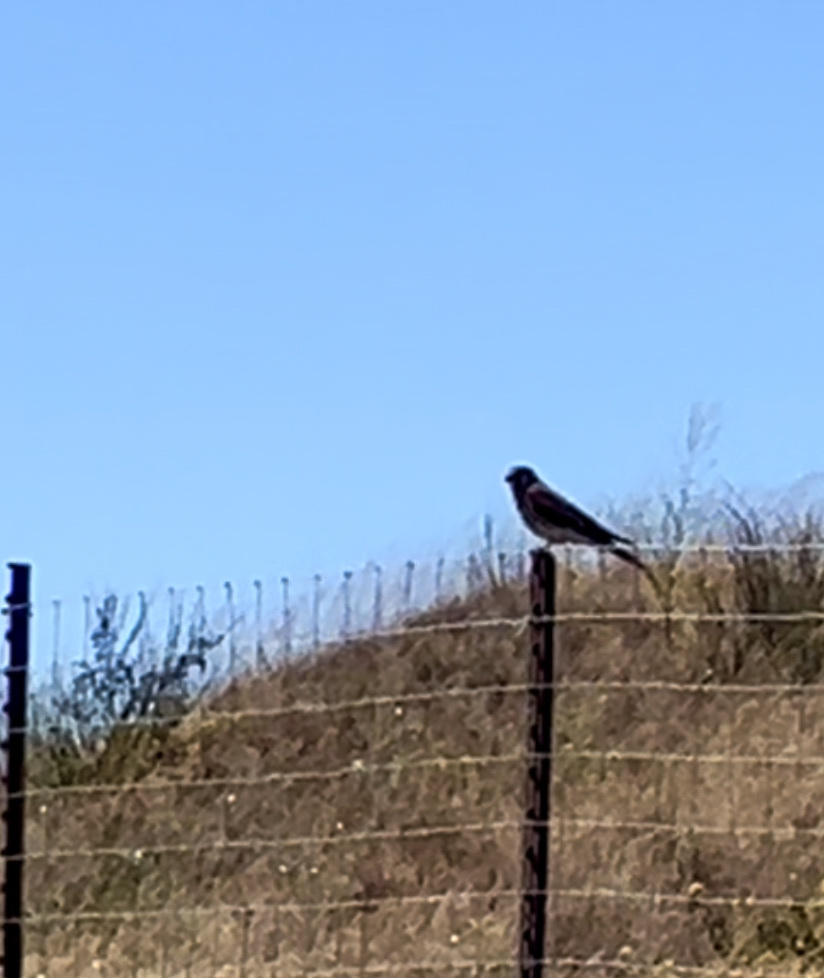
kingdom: Animalia
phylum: Chordata
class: Aves
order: Falconiformes
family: Falconidae
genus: Falco
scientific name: Falco sparverius
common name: American kestrel
